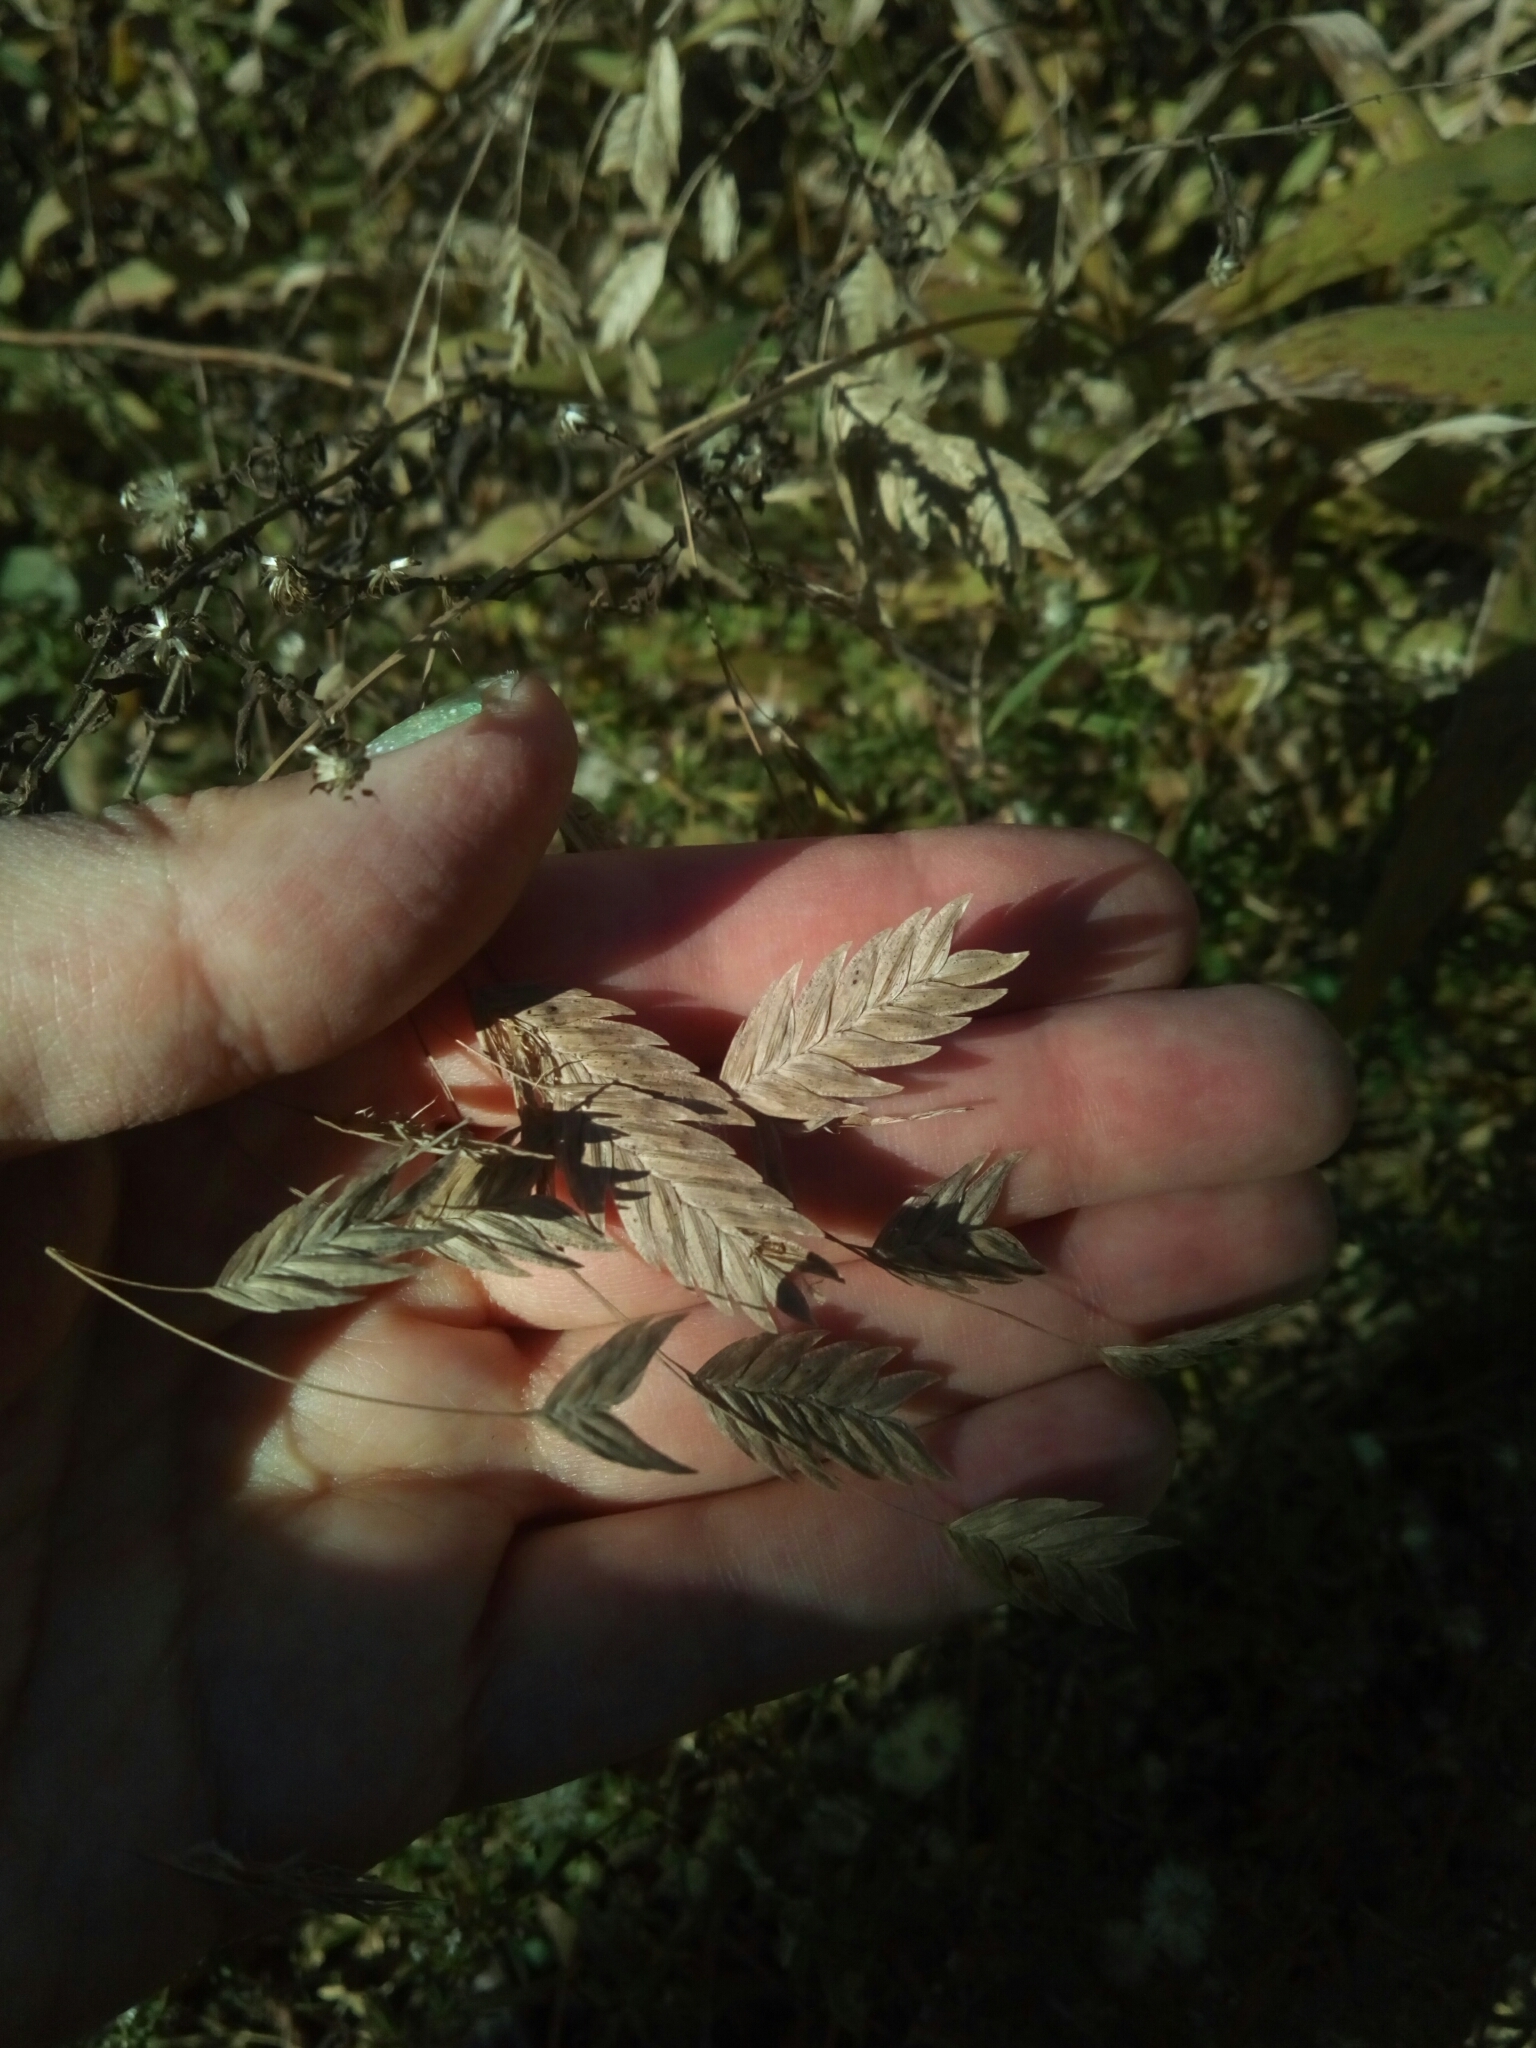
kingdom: Plantae
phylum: Tracheophyta
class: Liliopsida
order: Poales
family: Poaceae
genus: Chasmanthium
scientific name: Chasmanthium latifolium
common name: Broad-leaved chasmanthium
